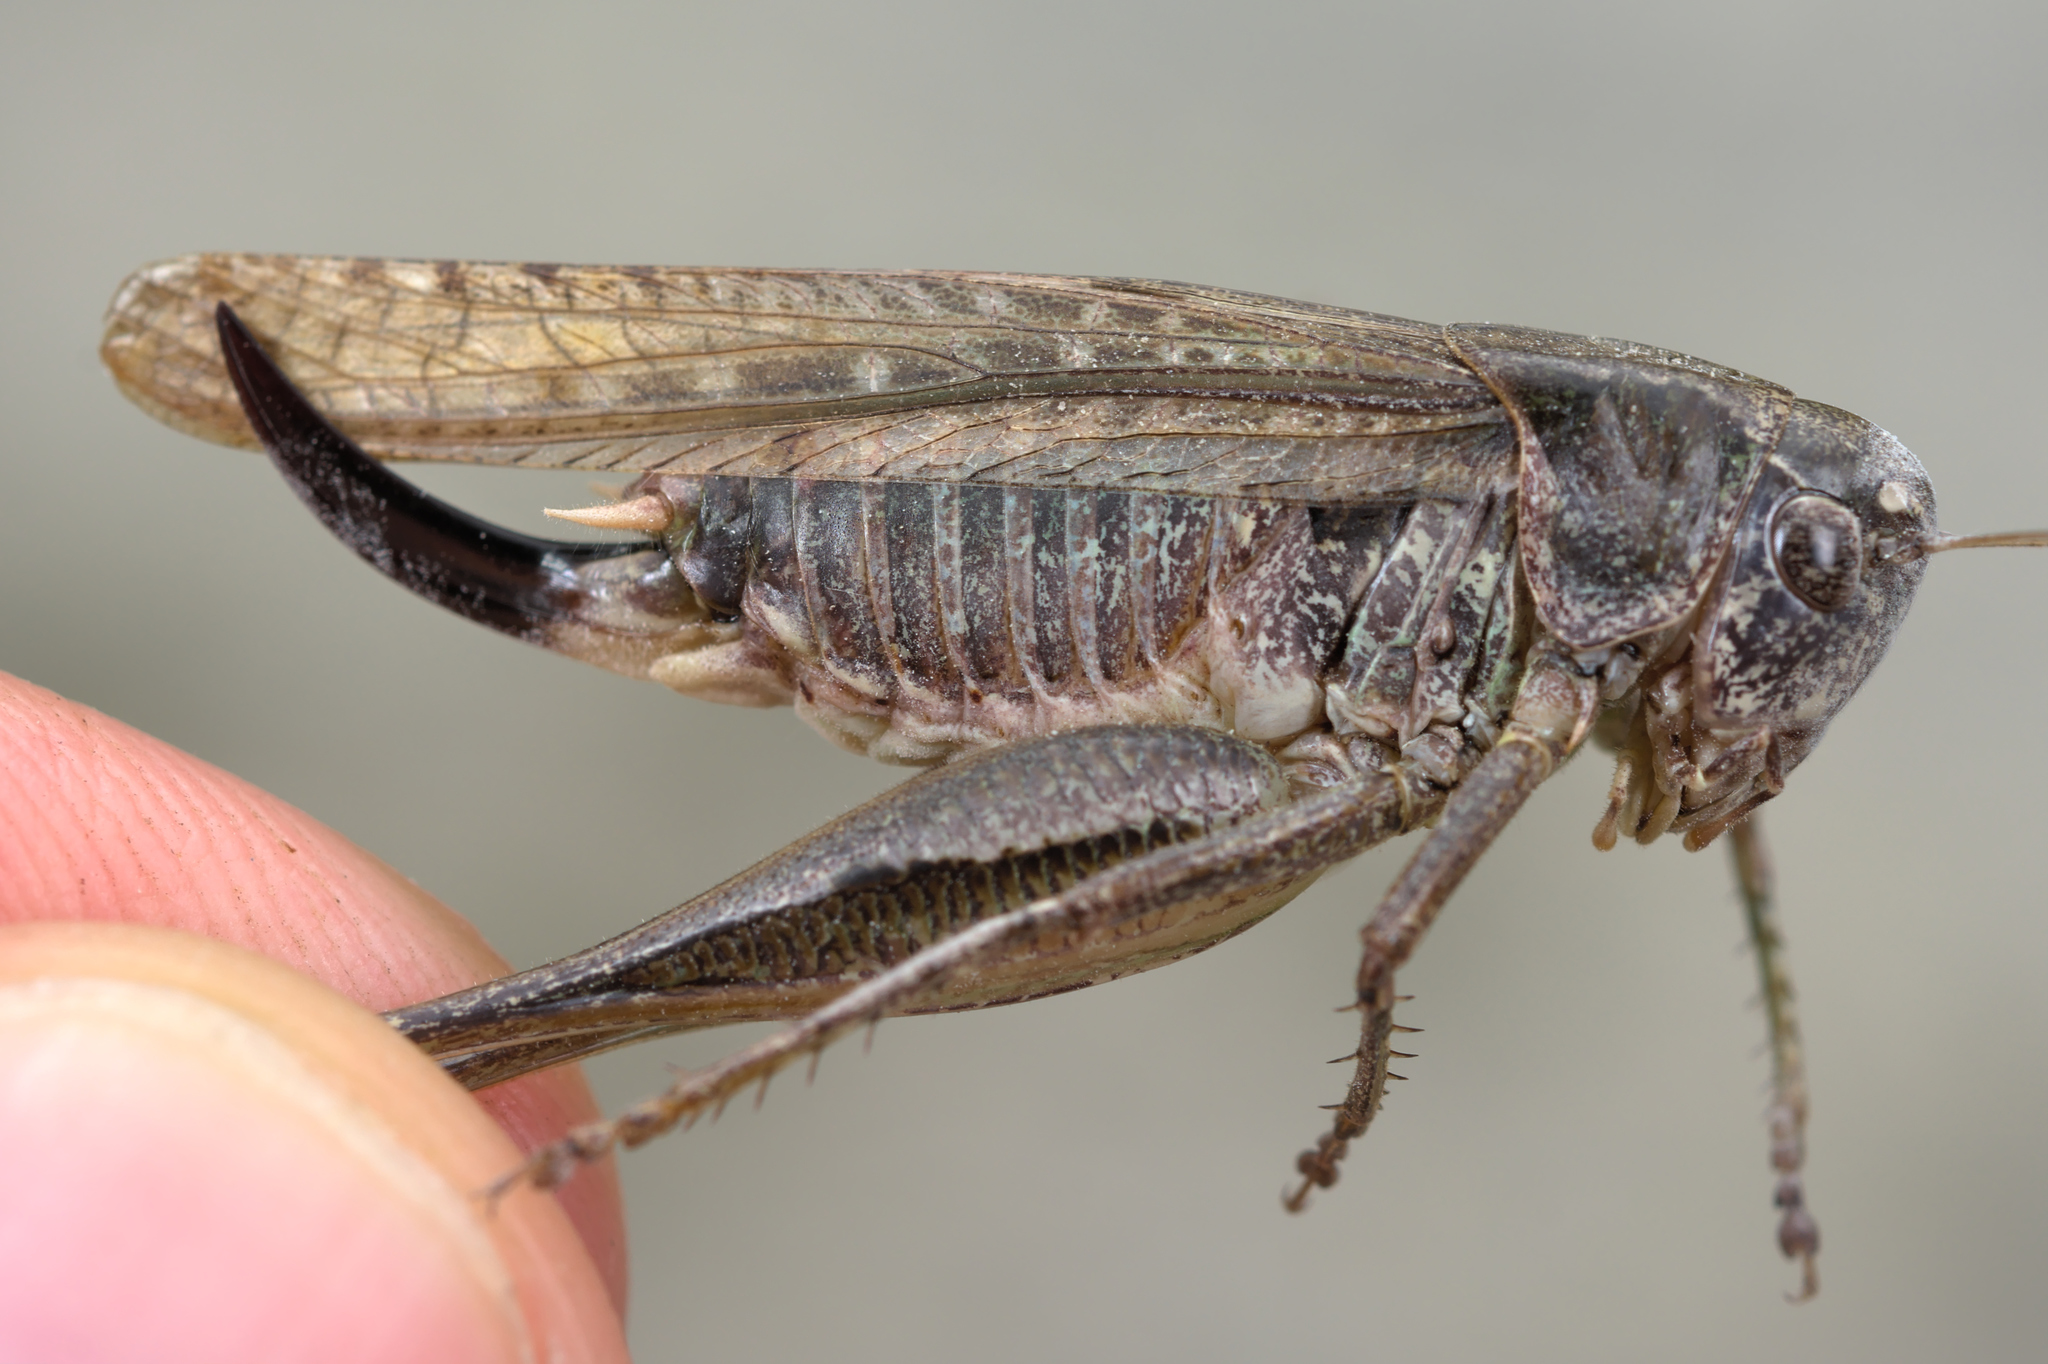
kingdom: Animalia
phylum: Arthropoda
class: Insecta
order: Orthoptera
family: Tettigoniidae
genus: Platycleis
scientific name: Platycleis albopunctata
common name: Grey bush-cricket
